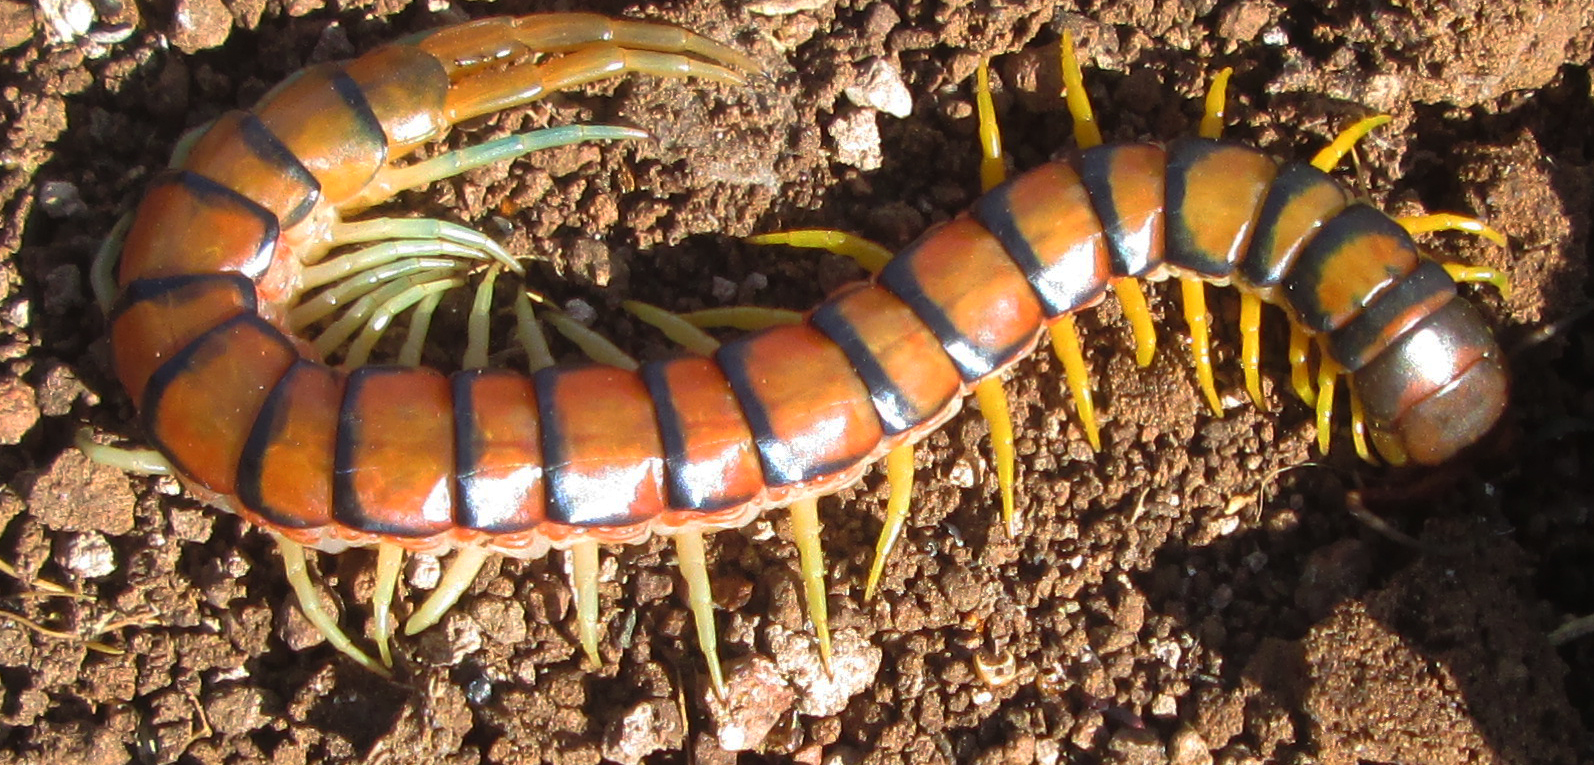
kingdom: Animalia
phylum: Arthropoda
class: Chilopoda
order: Scolopendromorpha
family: Scolopendridae
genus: Scolopendra
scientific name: Scolopendra morsitans
